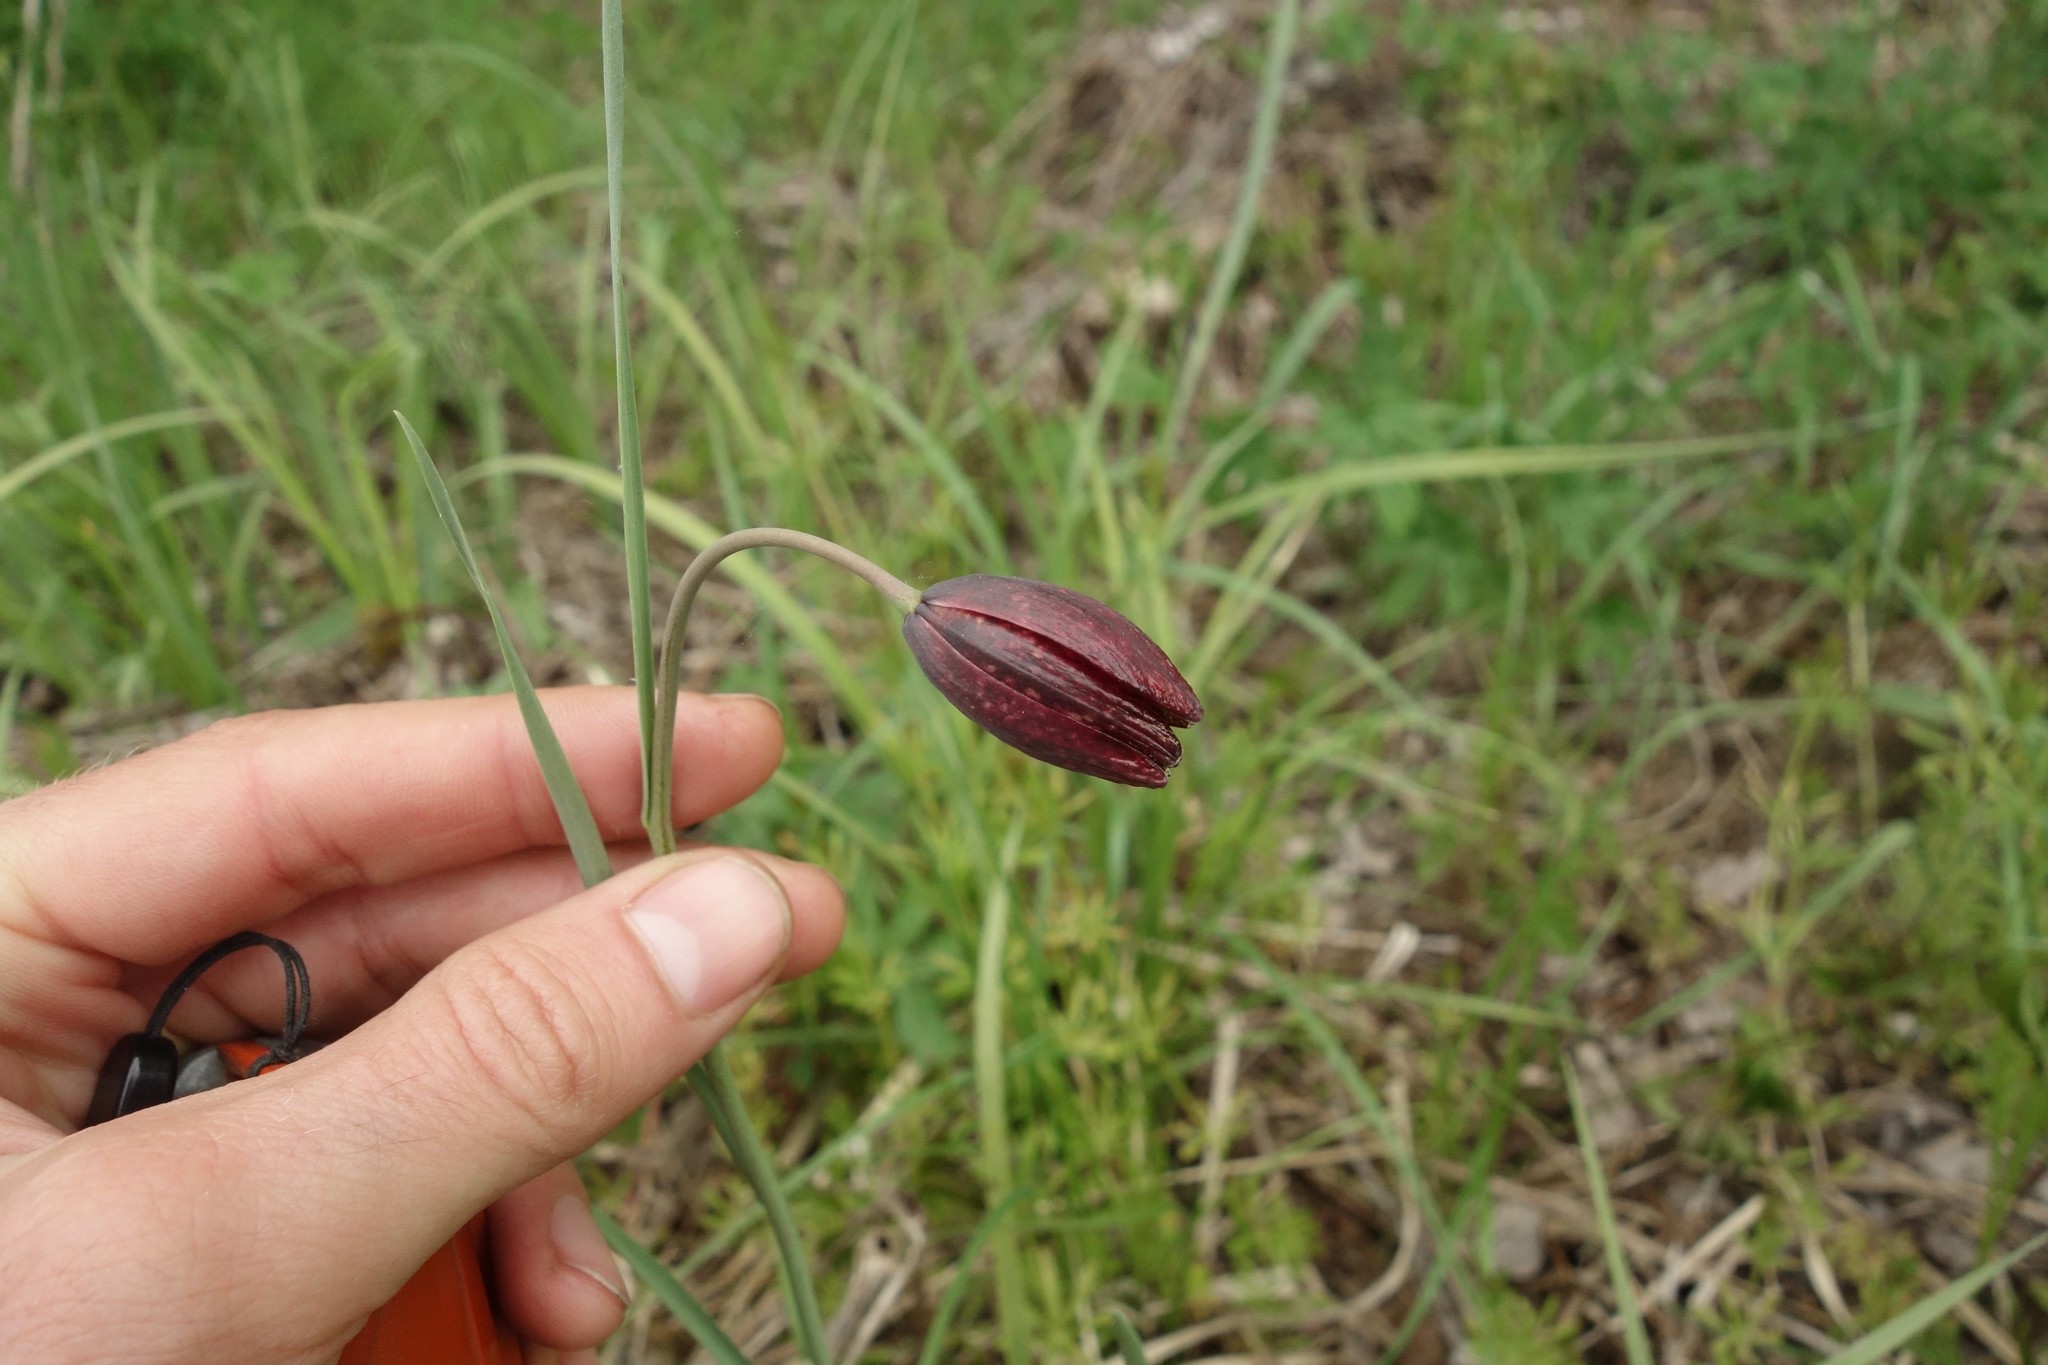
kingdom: Plantae
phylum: Tracheophyta
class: Liliopsida
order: Liliales
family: Liliaceae
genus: Fritillaria
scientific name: Fritillaria meleagroides
